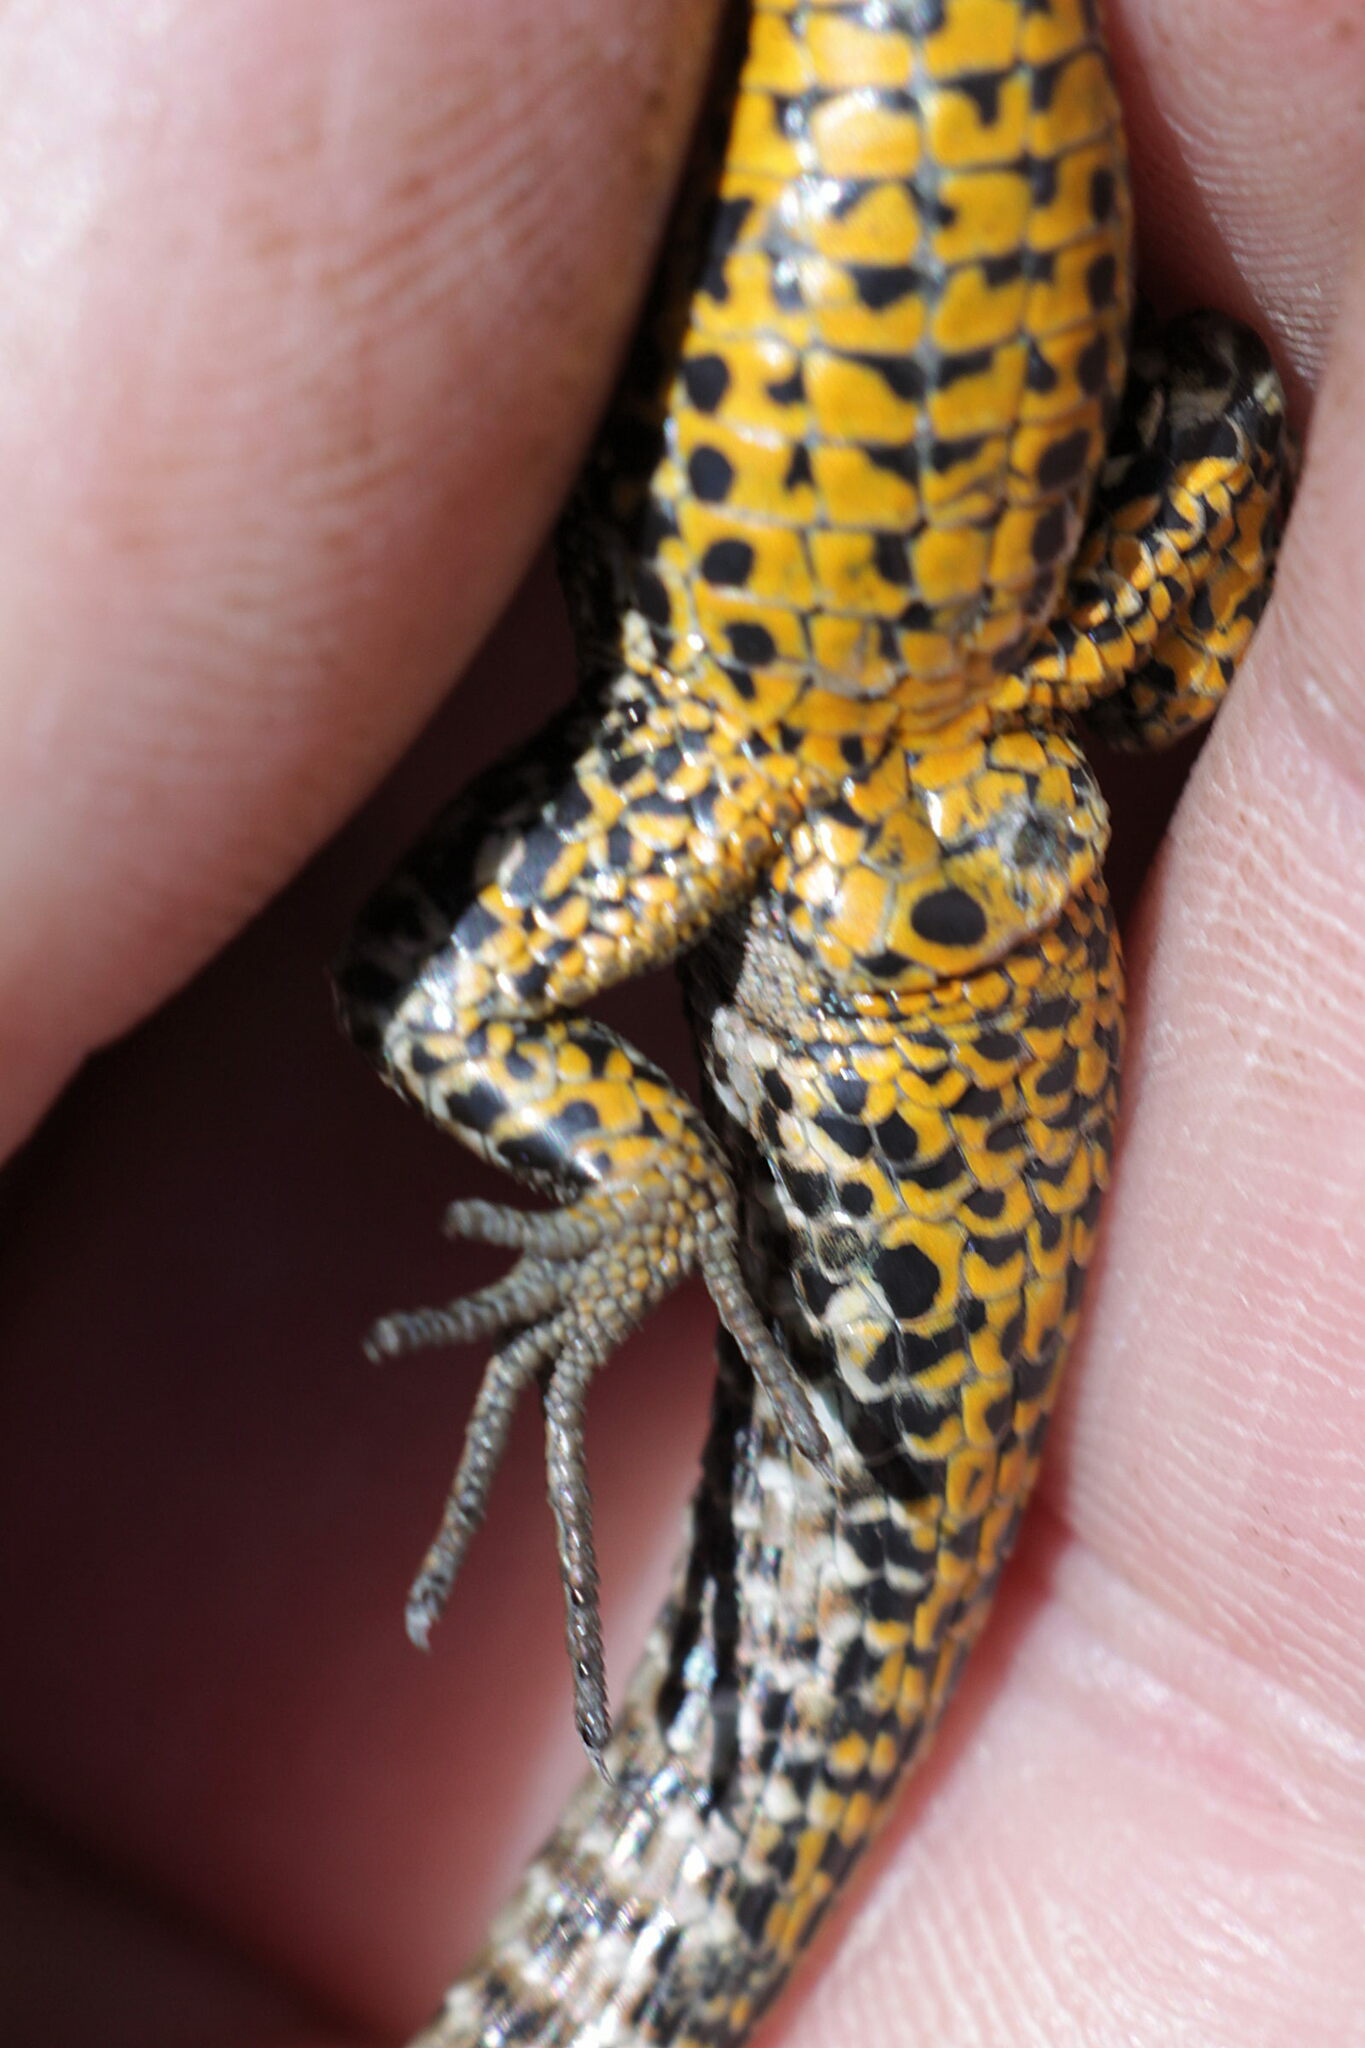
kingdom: Animalia
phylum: Chordata
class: Squamata
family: Lacertidae
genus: Zootoca
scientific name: Zootoca vivipara
